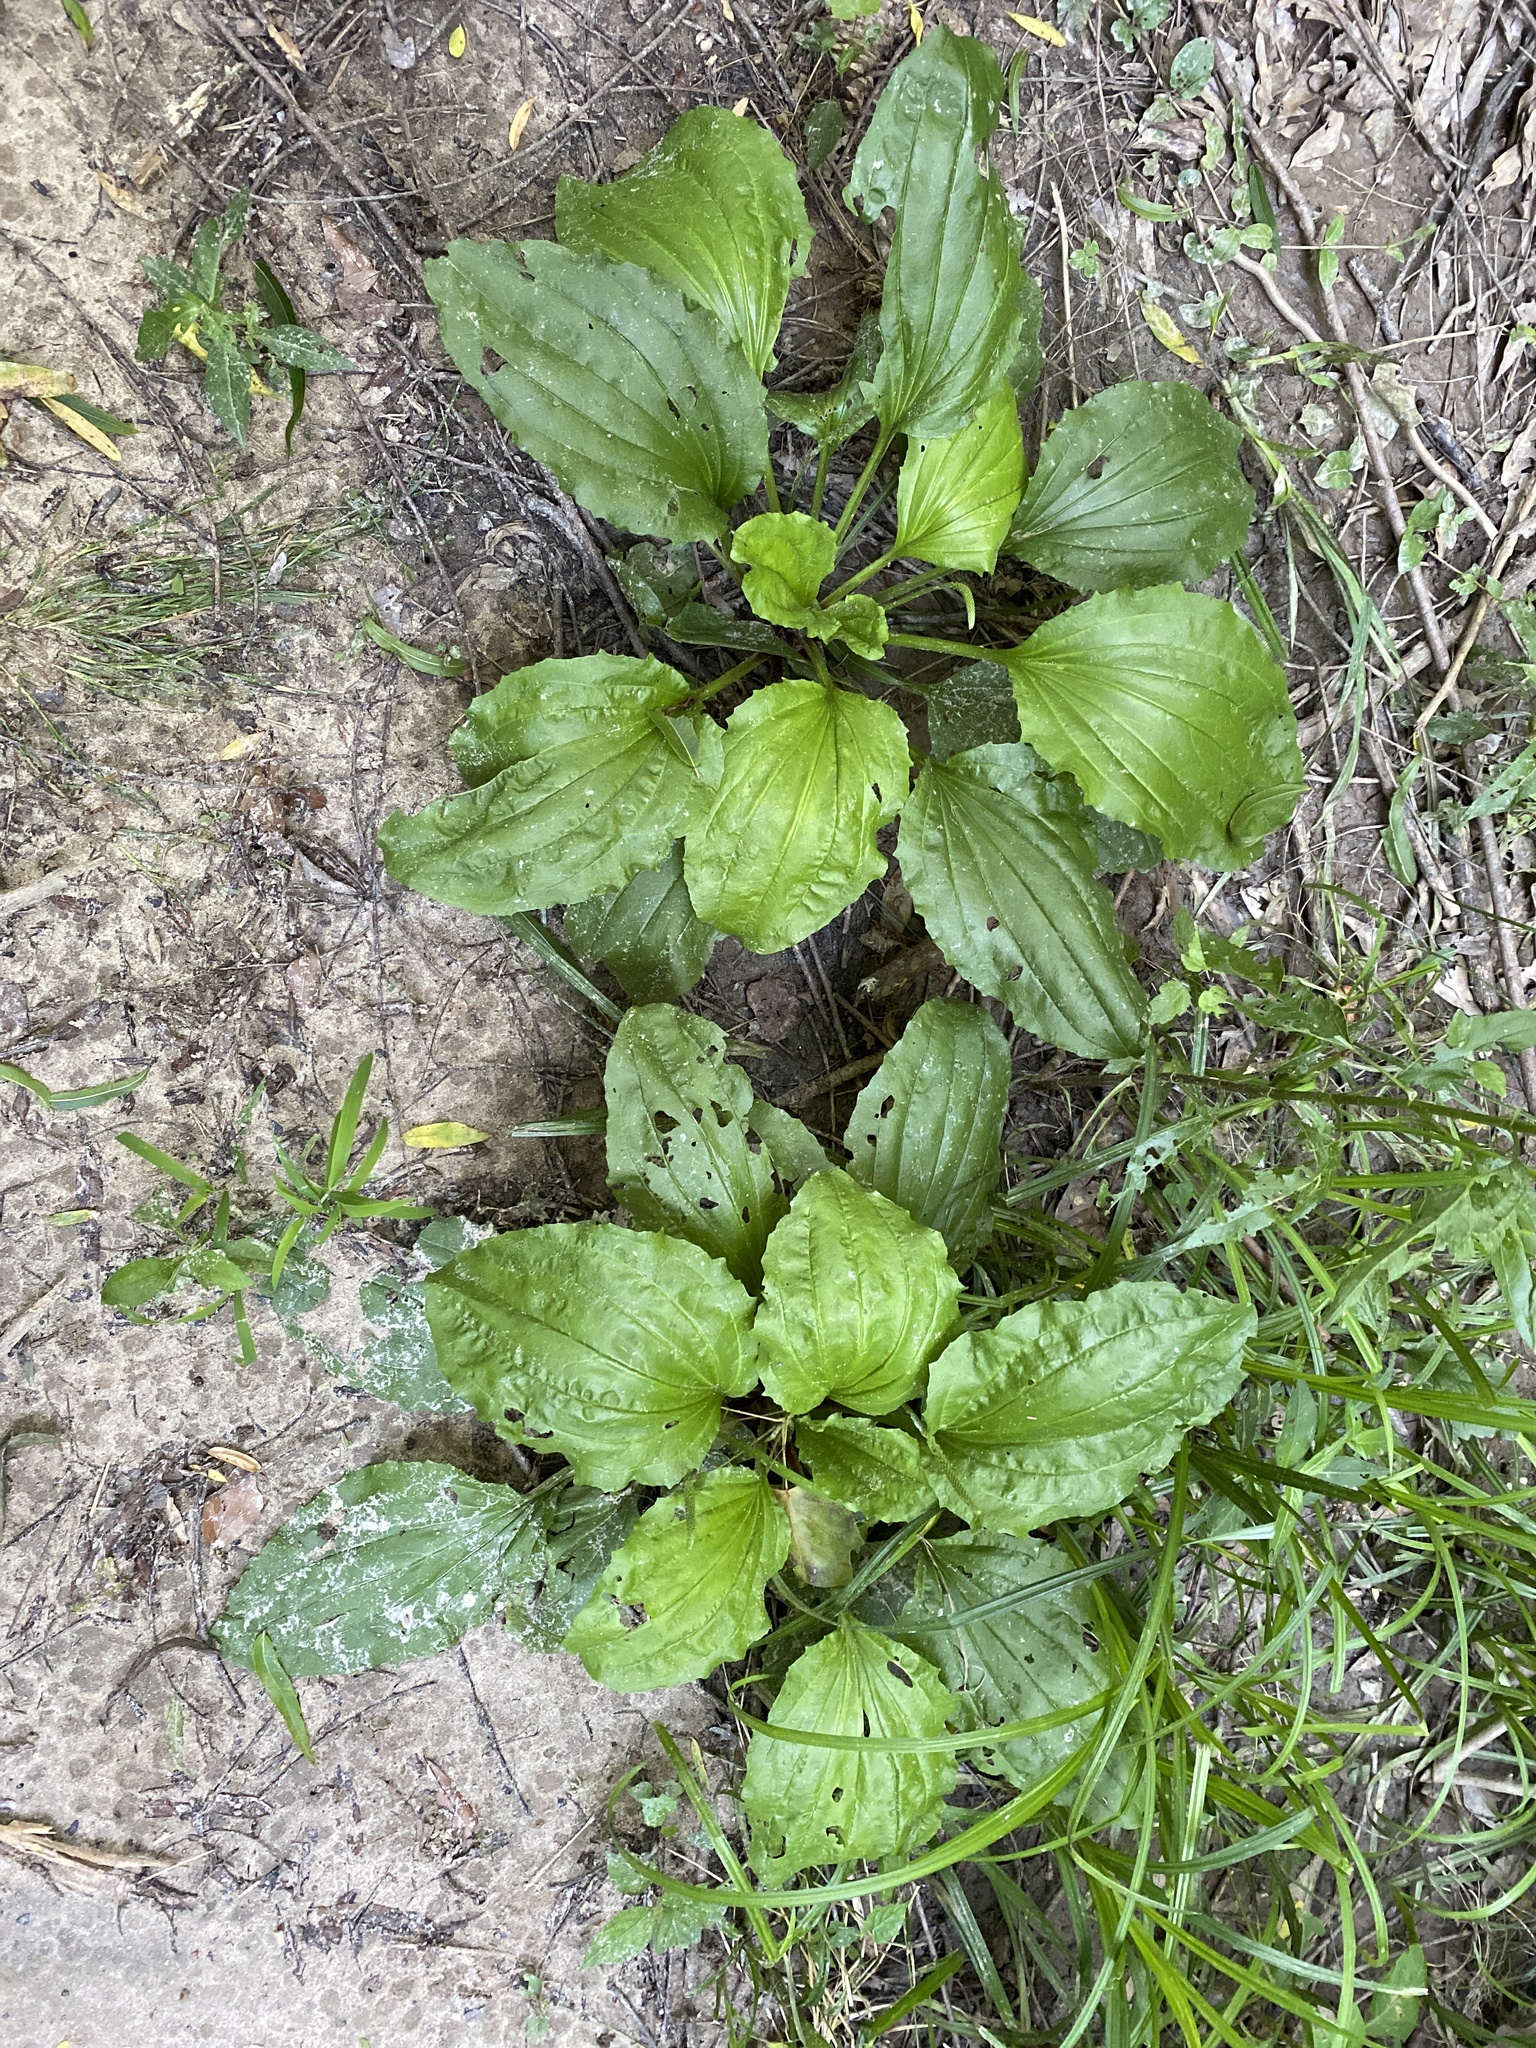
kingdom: Plantae
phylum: Tracheophyta
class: Magnoliopsida
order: Lamiales
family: Plantaginaceae
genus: Plantago
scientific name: Plantago rugelii
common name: American plantain
